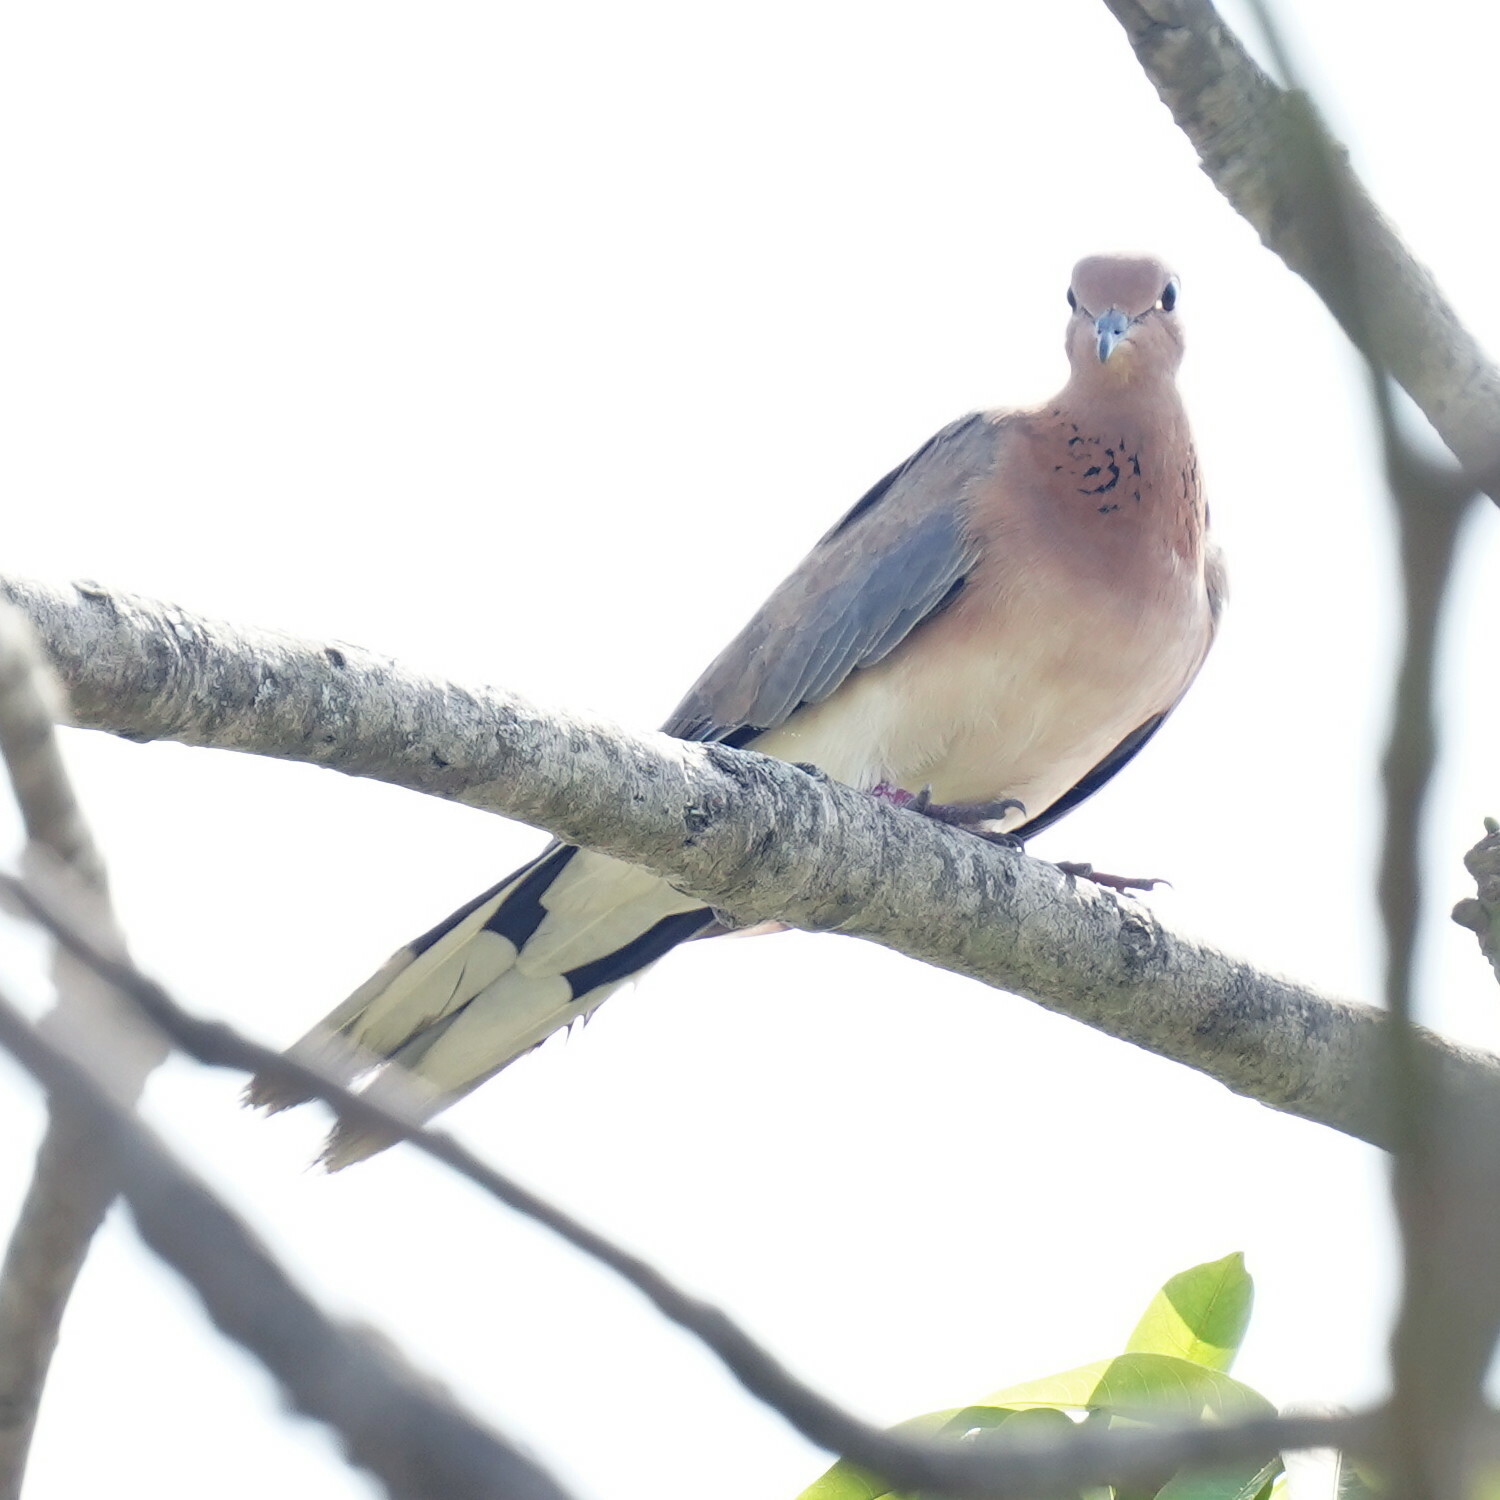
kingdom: Animalia
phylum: Chordata
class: Aves
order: Columbiformes
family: Columbidae
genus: Spilopelia
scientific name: Spilopelia senegalensis
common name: Laughing dove
